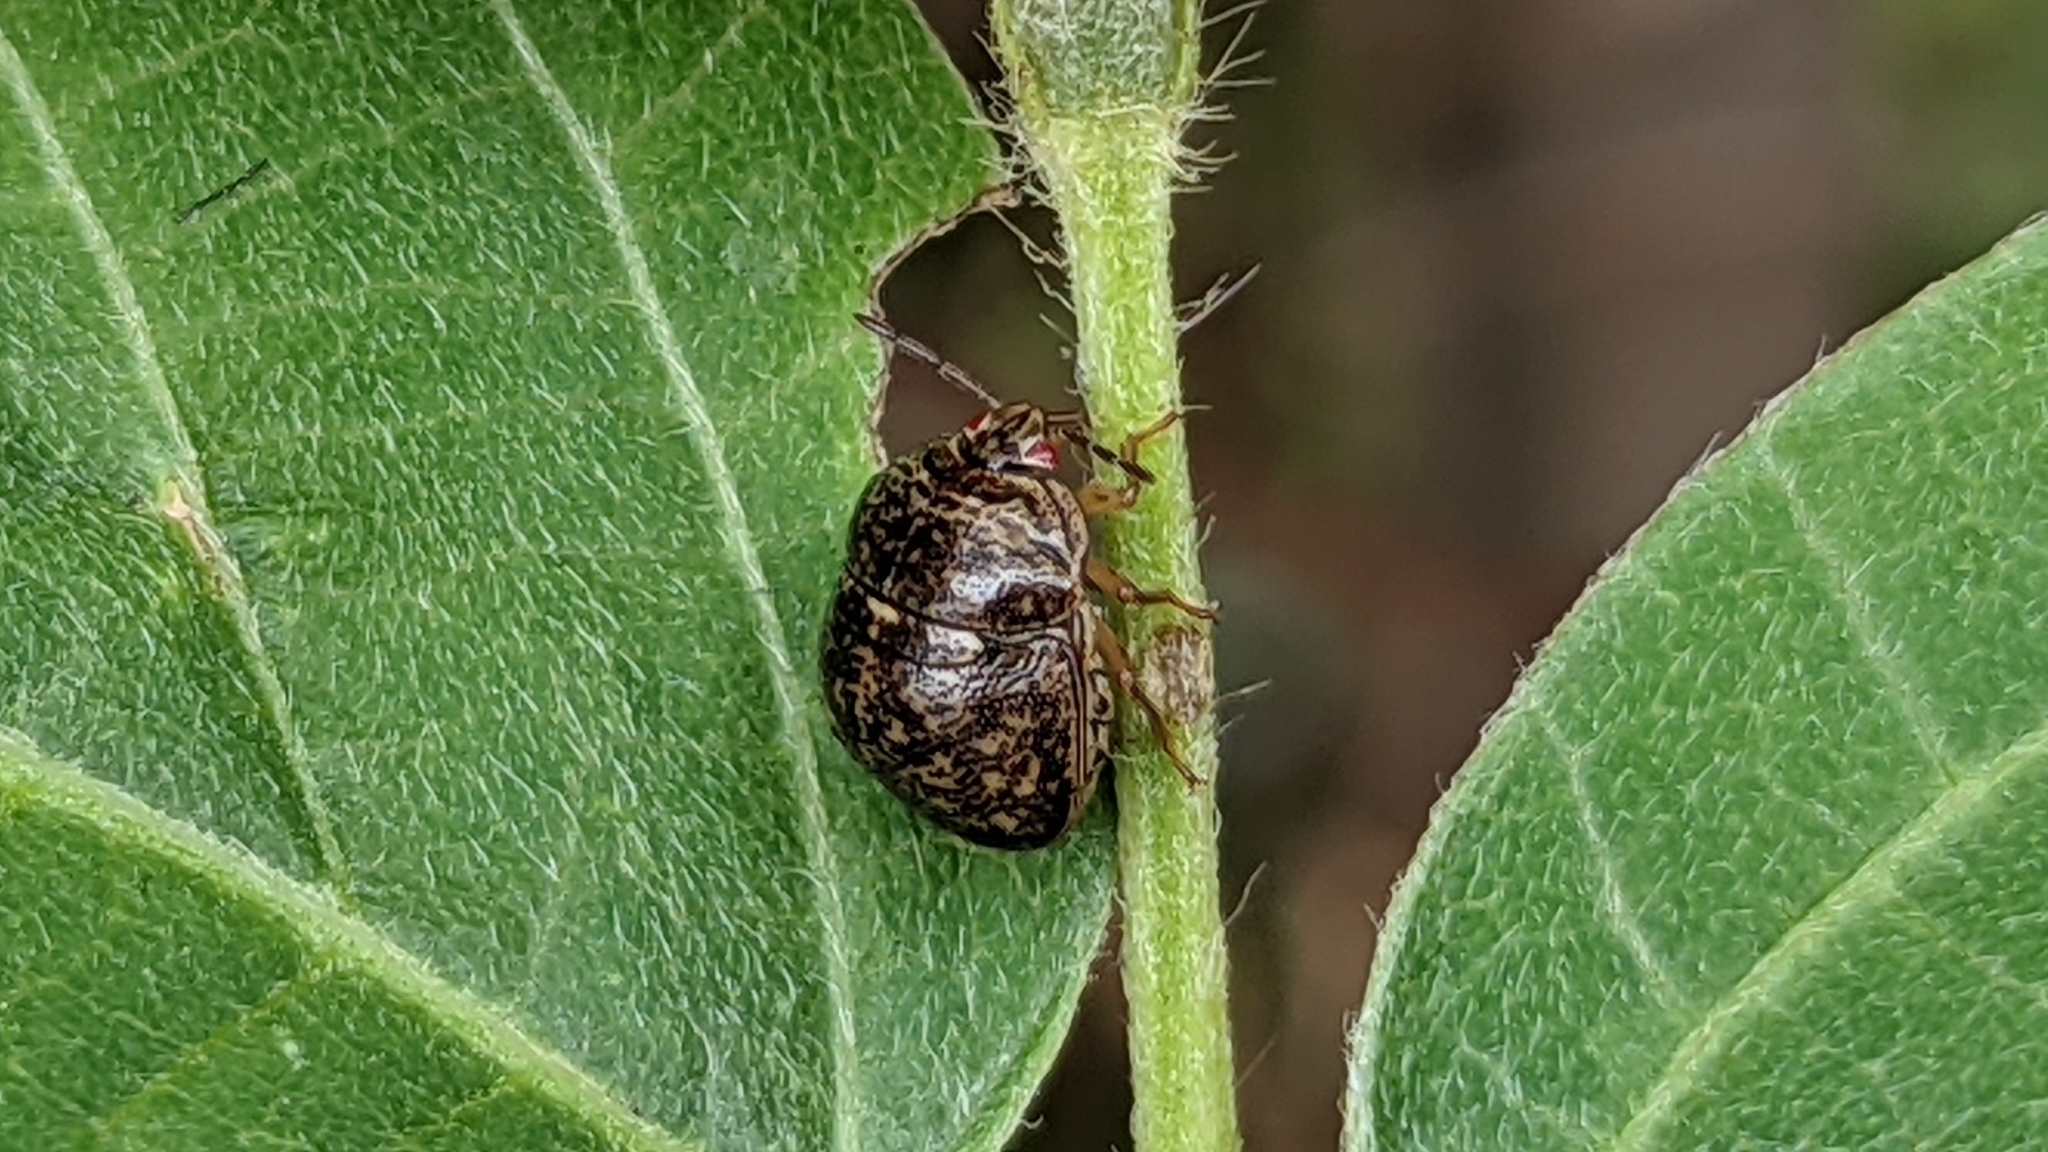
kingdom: Animalia
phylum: Arthropoda
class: Insecta
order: Hemiptera
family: Plataspidae
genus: Megacopta
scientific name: Megacopta cribraria
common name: Bean plataspid
